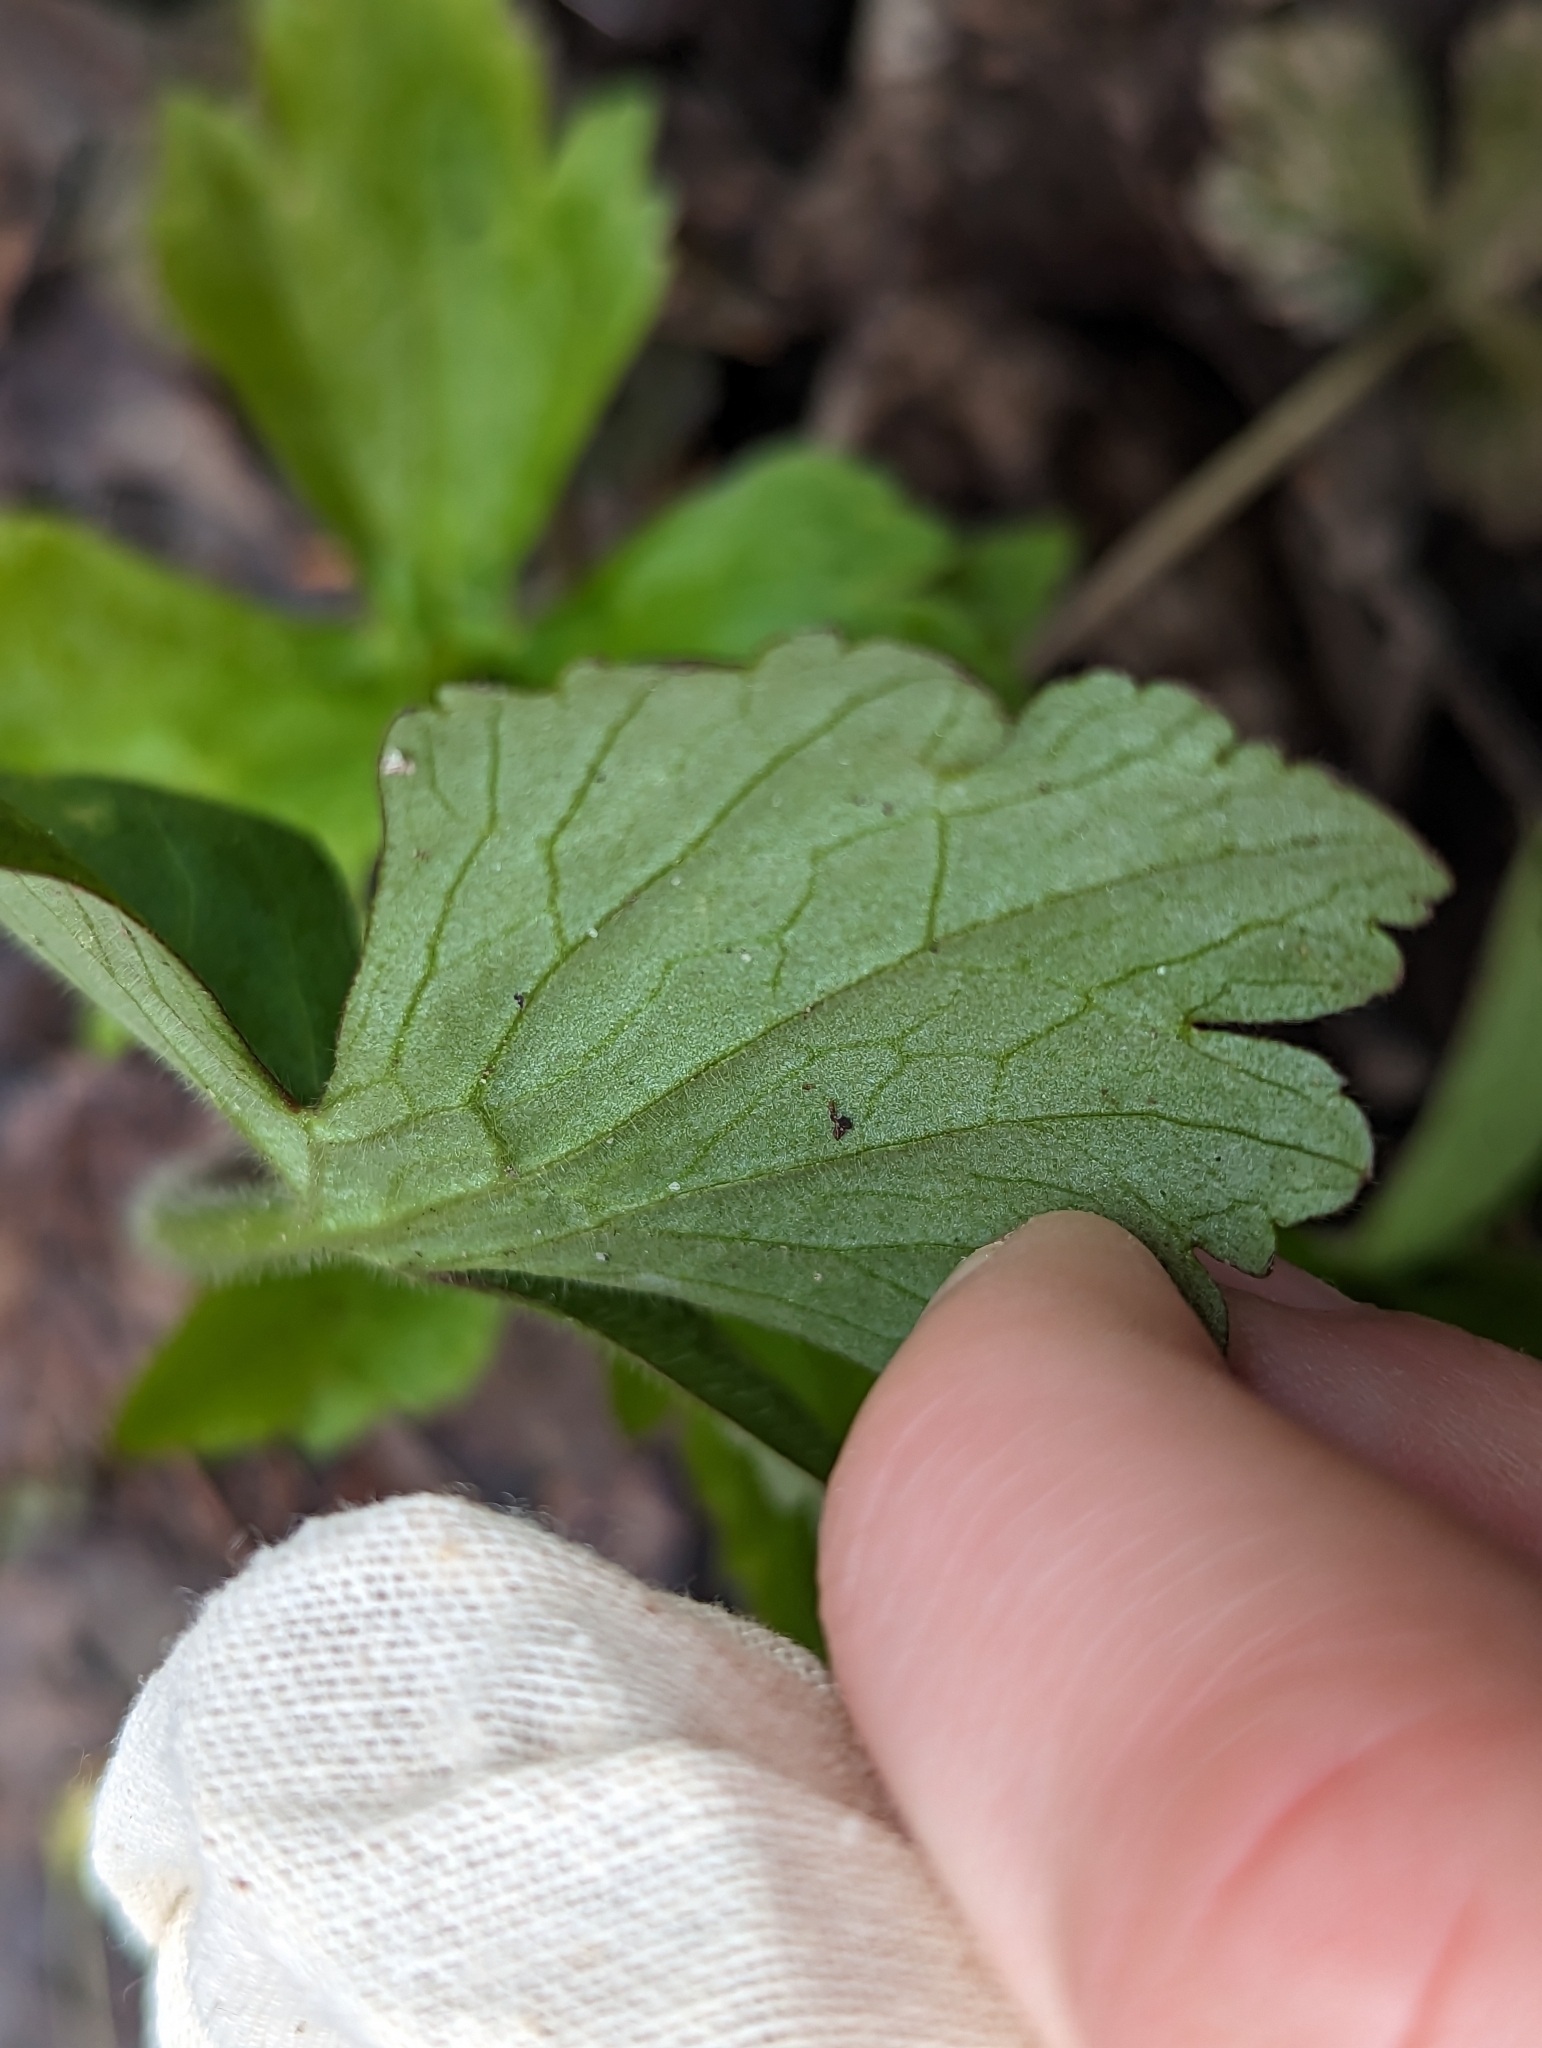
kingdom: Plantae
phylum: Tracheophyta
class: Magnoliopsida
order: Ranunculales
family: Ranunculaceae
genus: Ranunculus
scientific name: Ranunculus recurvatus
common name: Blisterwort
